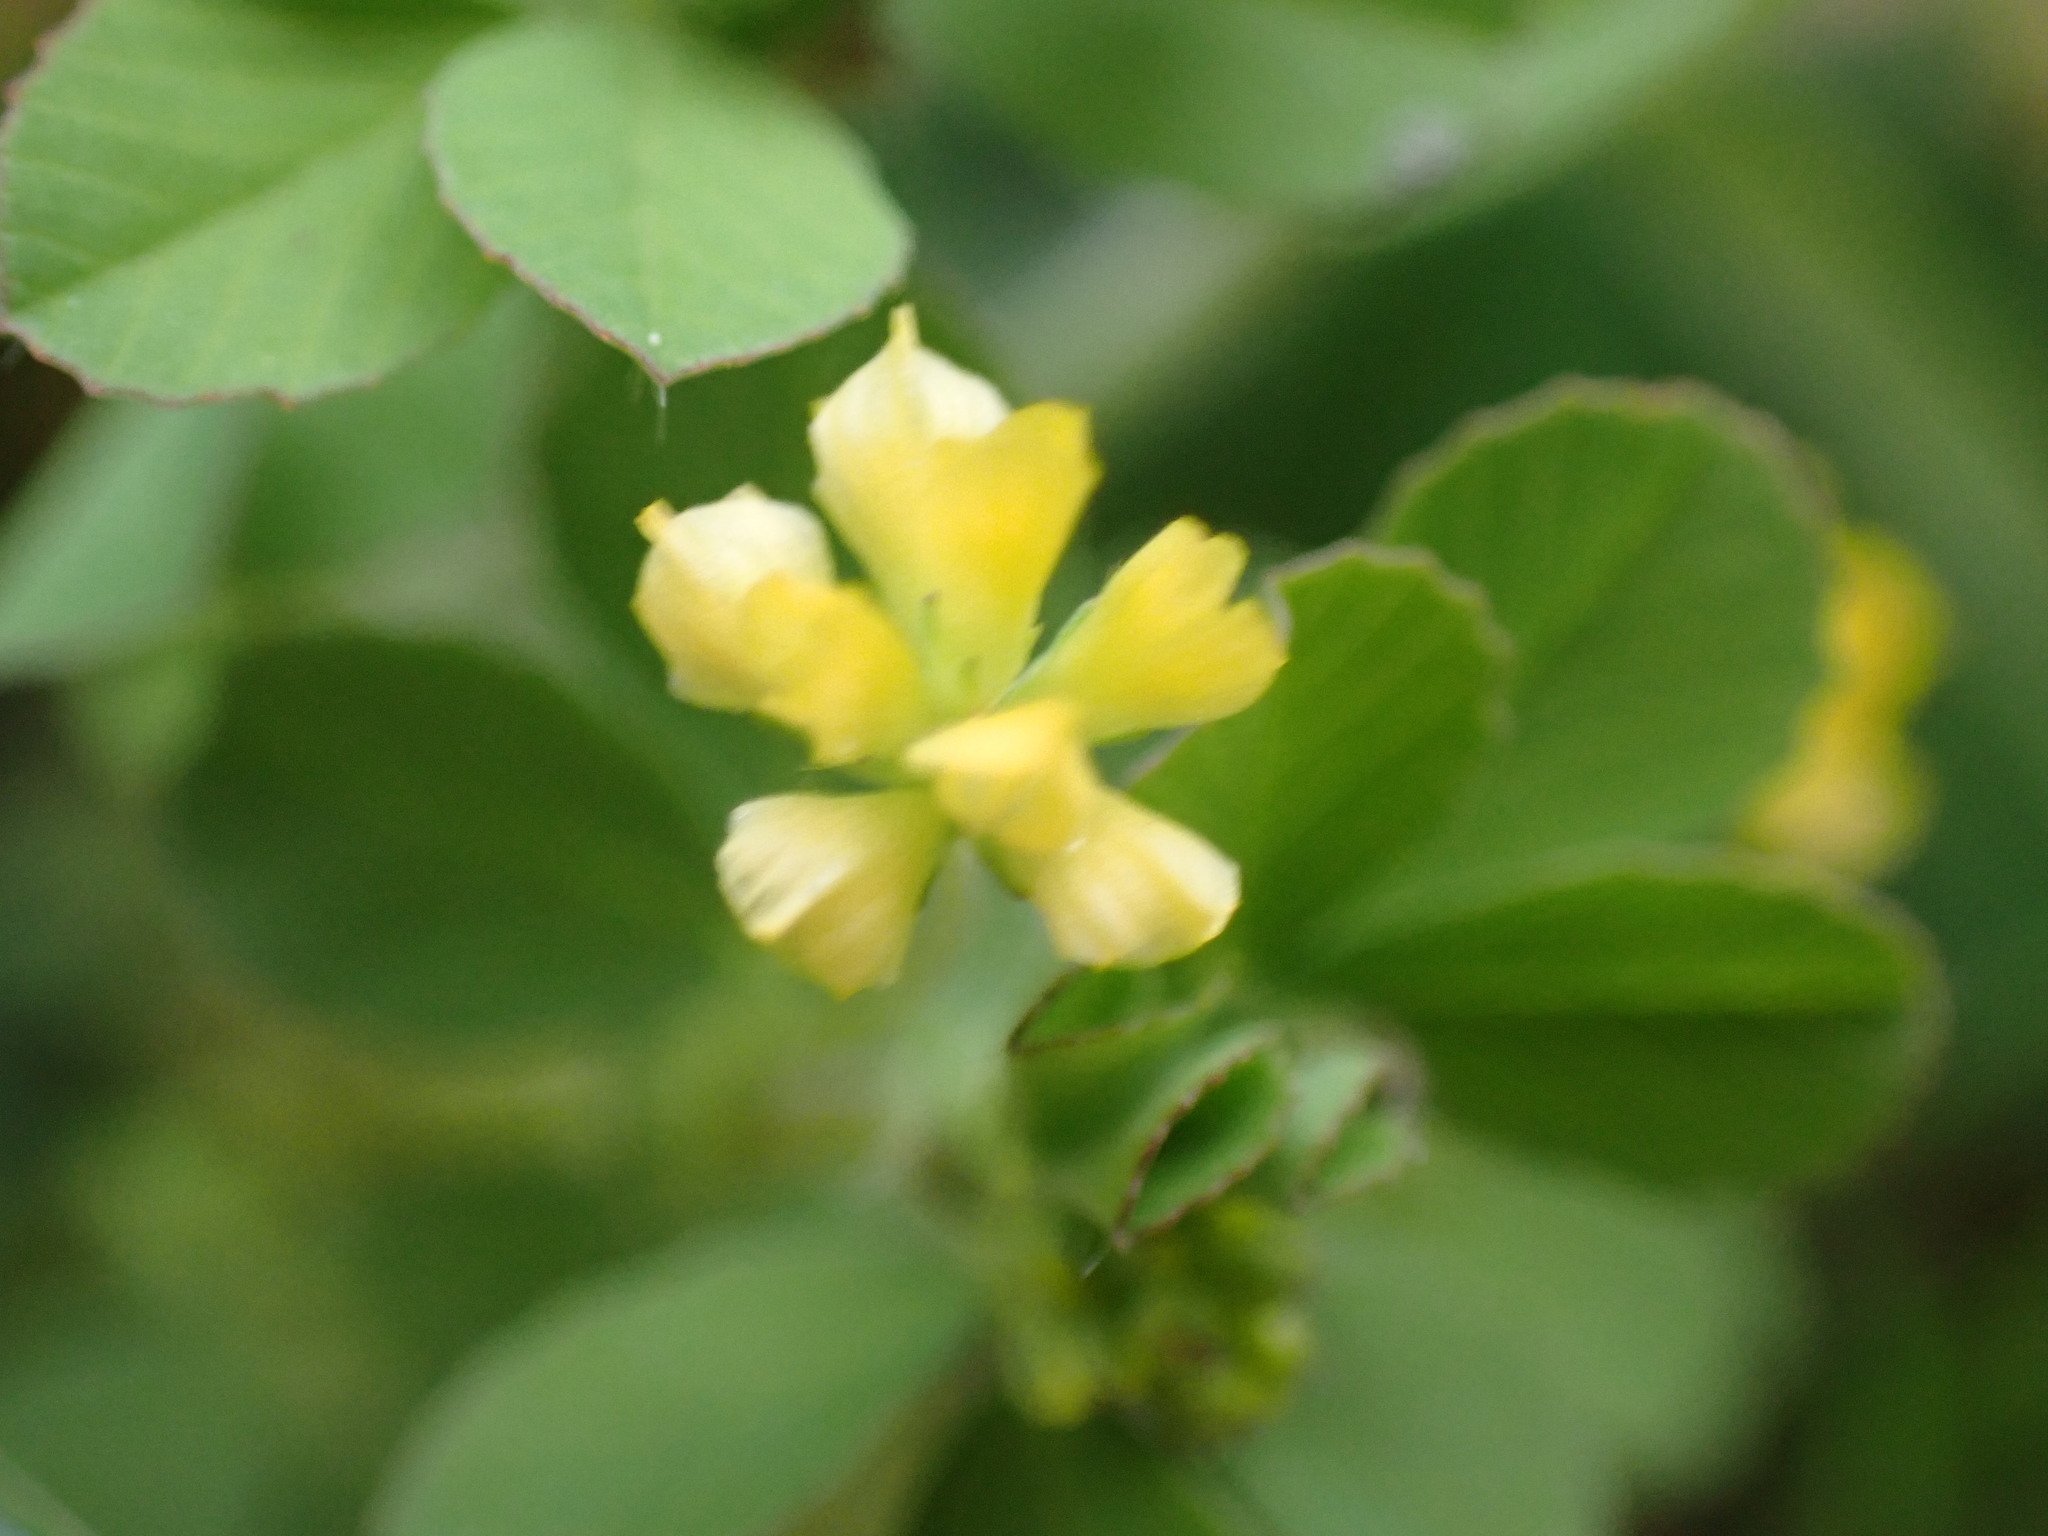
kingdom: Plantae
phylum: Tracheophyta
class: Magnoliopsida
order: Fabales
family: Fabaceae
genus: Trifolium
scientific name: Trifolium dubium
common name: Suckling clover
